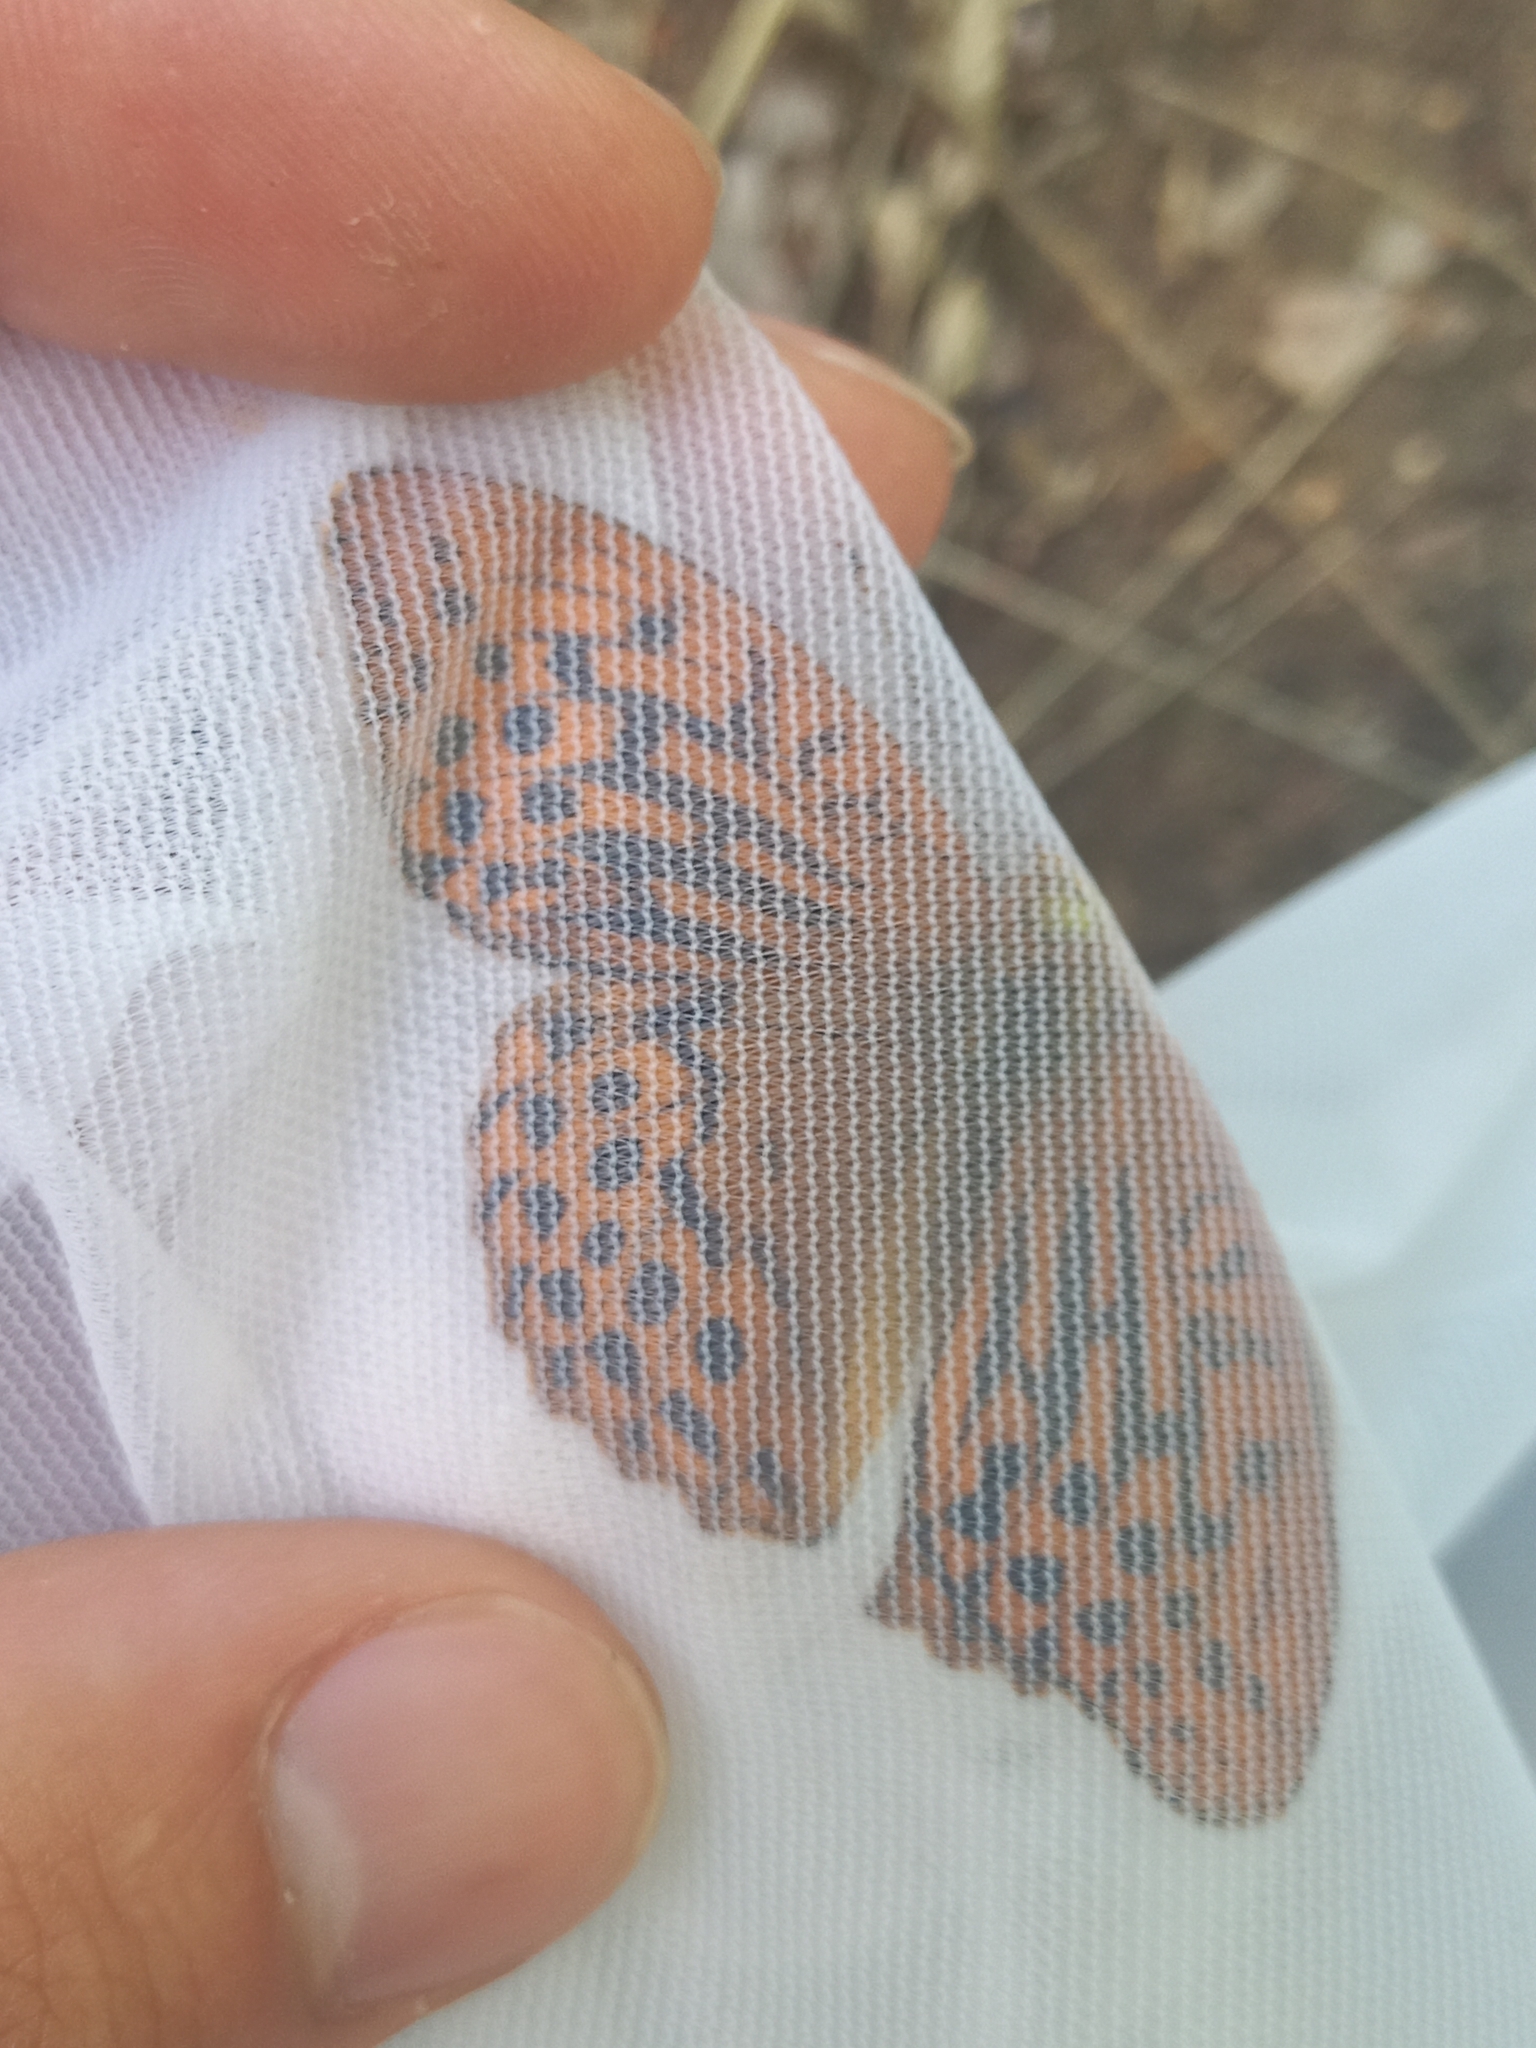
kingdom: Animalia
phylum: Arthropoda
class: Insecta
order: Lepidoptera
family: Nymphalidae
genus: Argynnis
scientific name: Argynnis paphia
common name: Silver-washed fritillary
